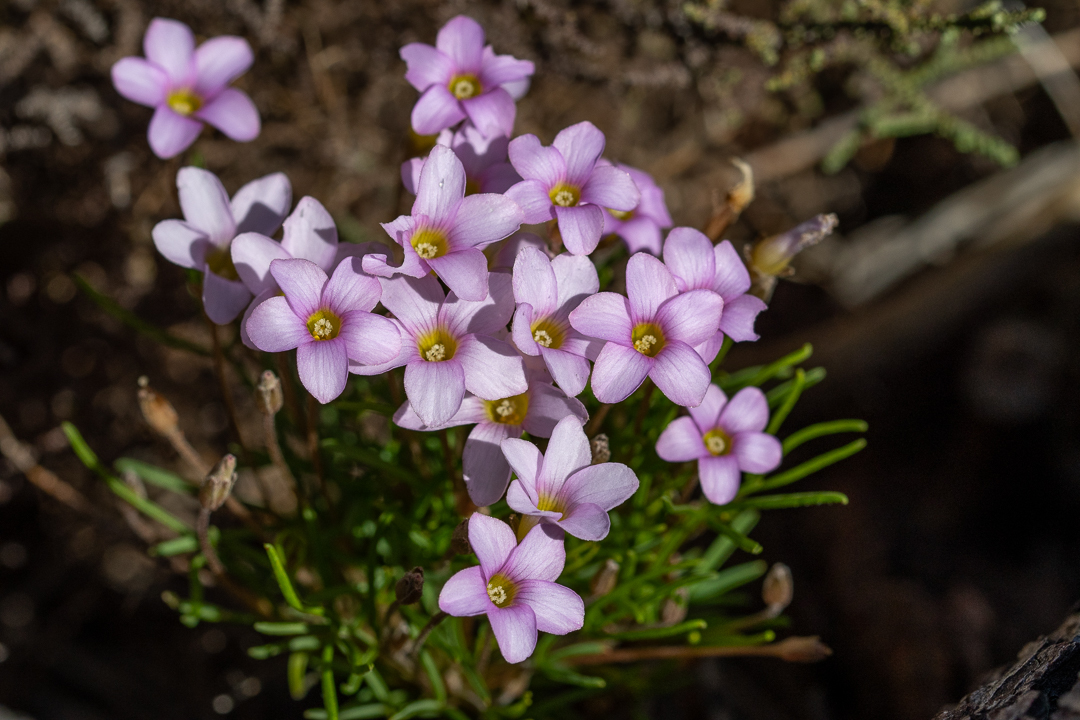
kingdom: Plantae
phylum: Tracheophyta
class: Magnoliopsida
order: Oxalidales
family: Oxalidaceae
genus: Oxalis
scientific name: Oxalis polyphylla
